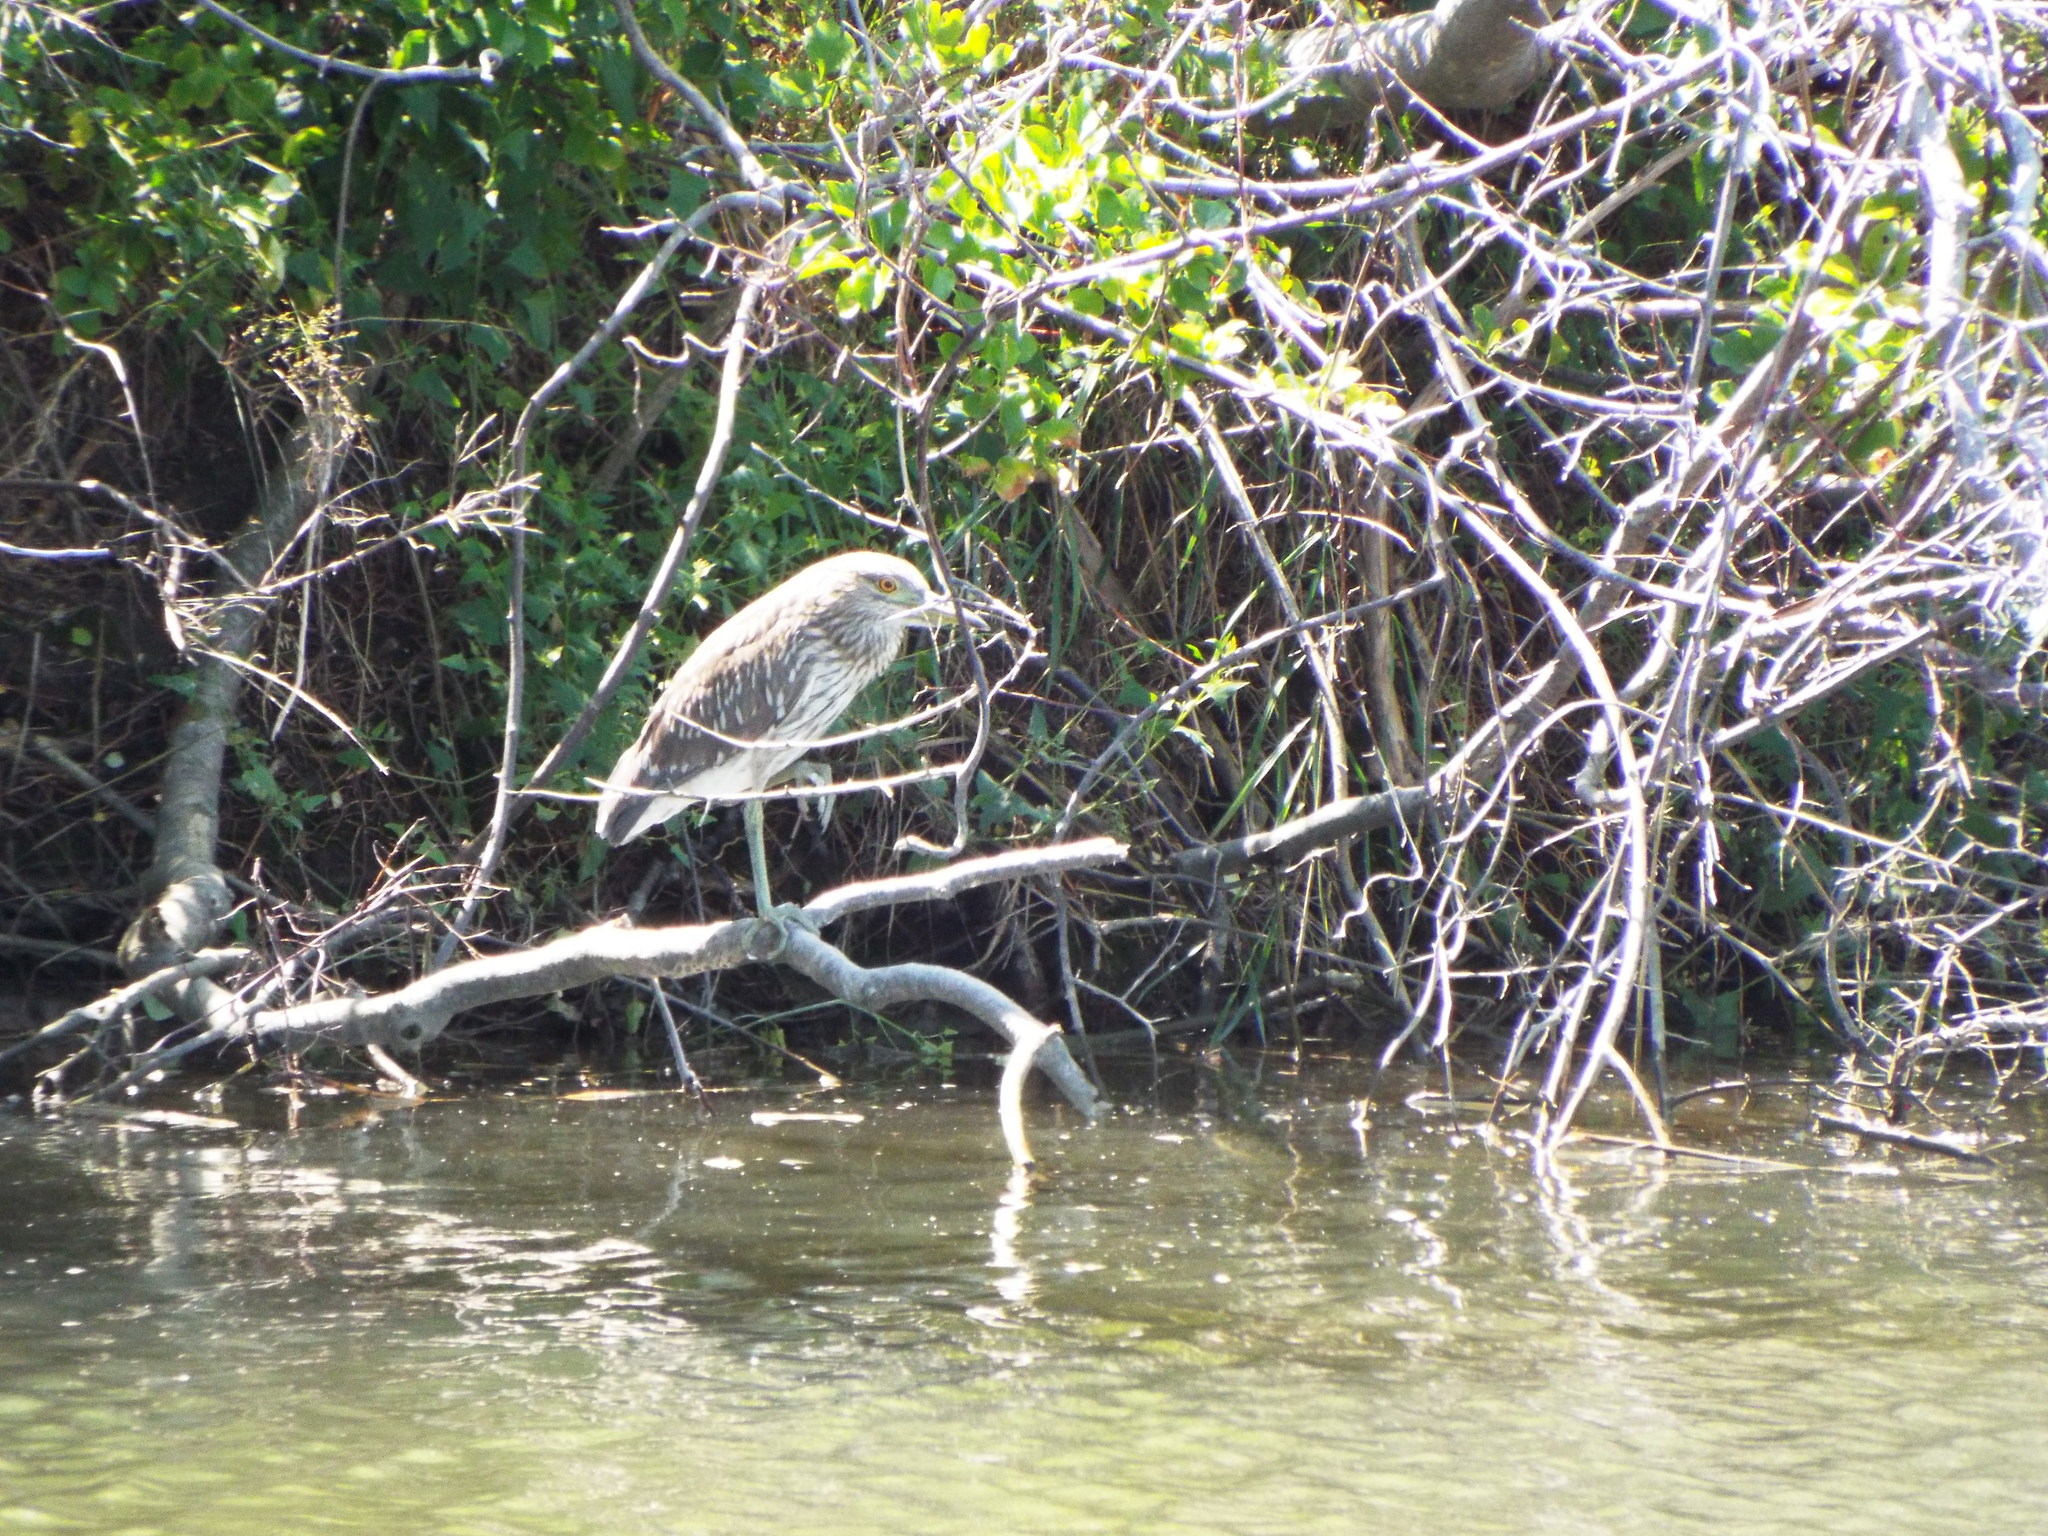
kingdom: Animalia
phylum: Chordata
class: Aves
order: Pelecaniformes
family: Ardeidae
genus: Nycticorax
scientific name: Nycticorax nycticorax
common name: Black-crowned night heron
